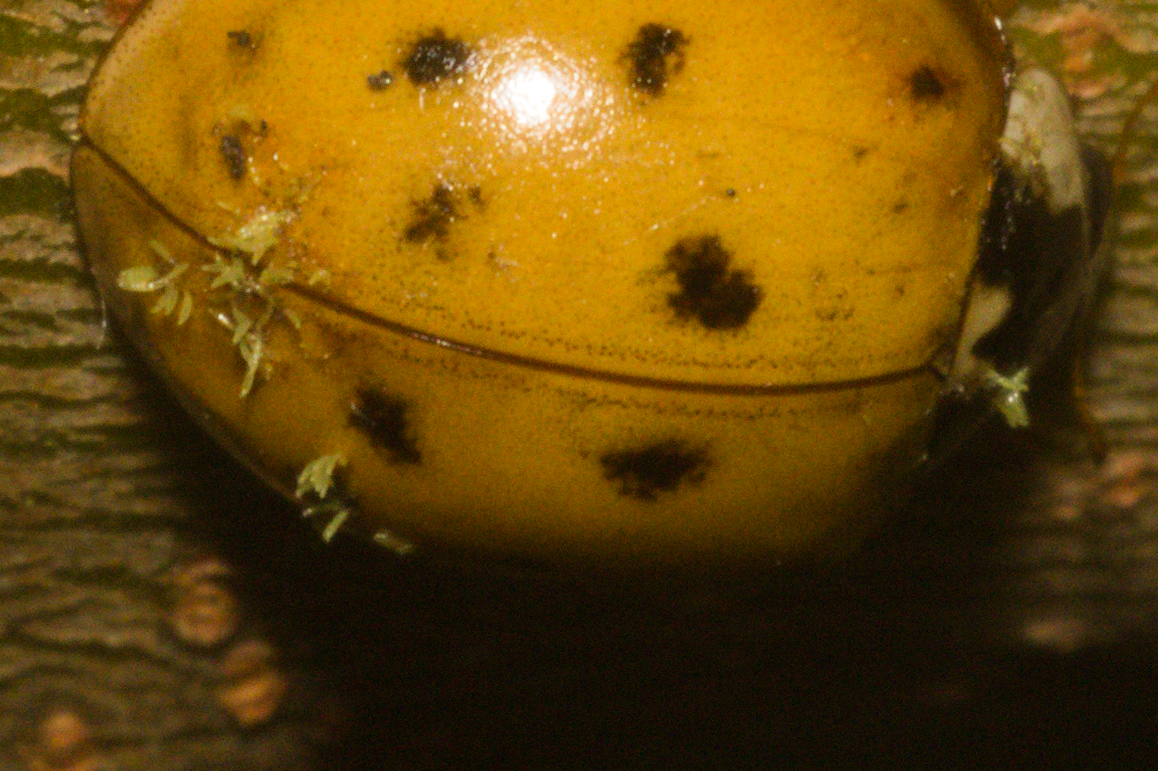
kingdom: Fungi
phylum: Ascomycota
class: Laboulbeniomycetes
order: Laboulbeniales
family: Laboulbeniaceae
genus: Hesperomyces
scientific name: Hesperomyces harmoniae
